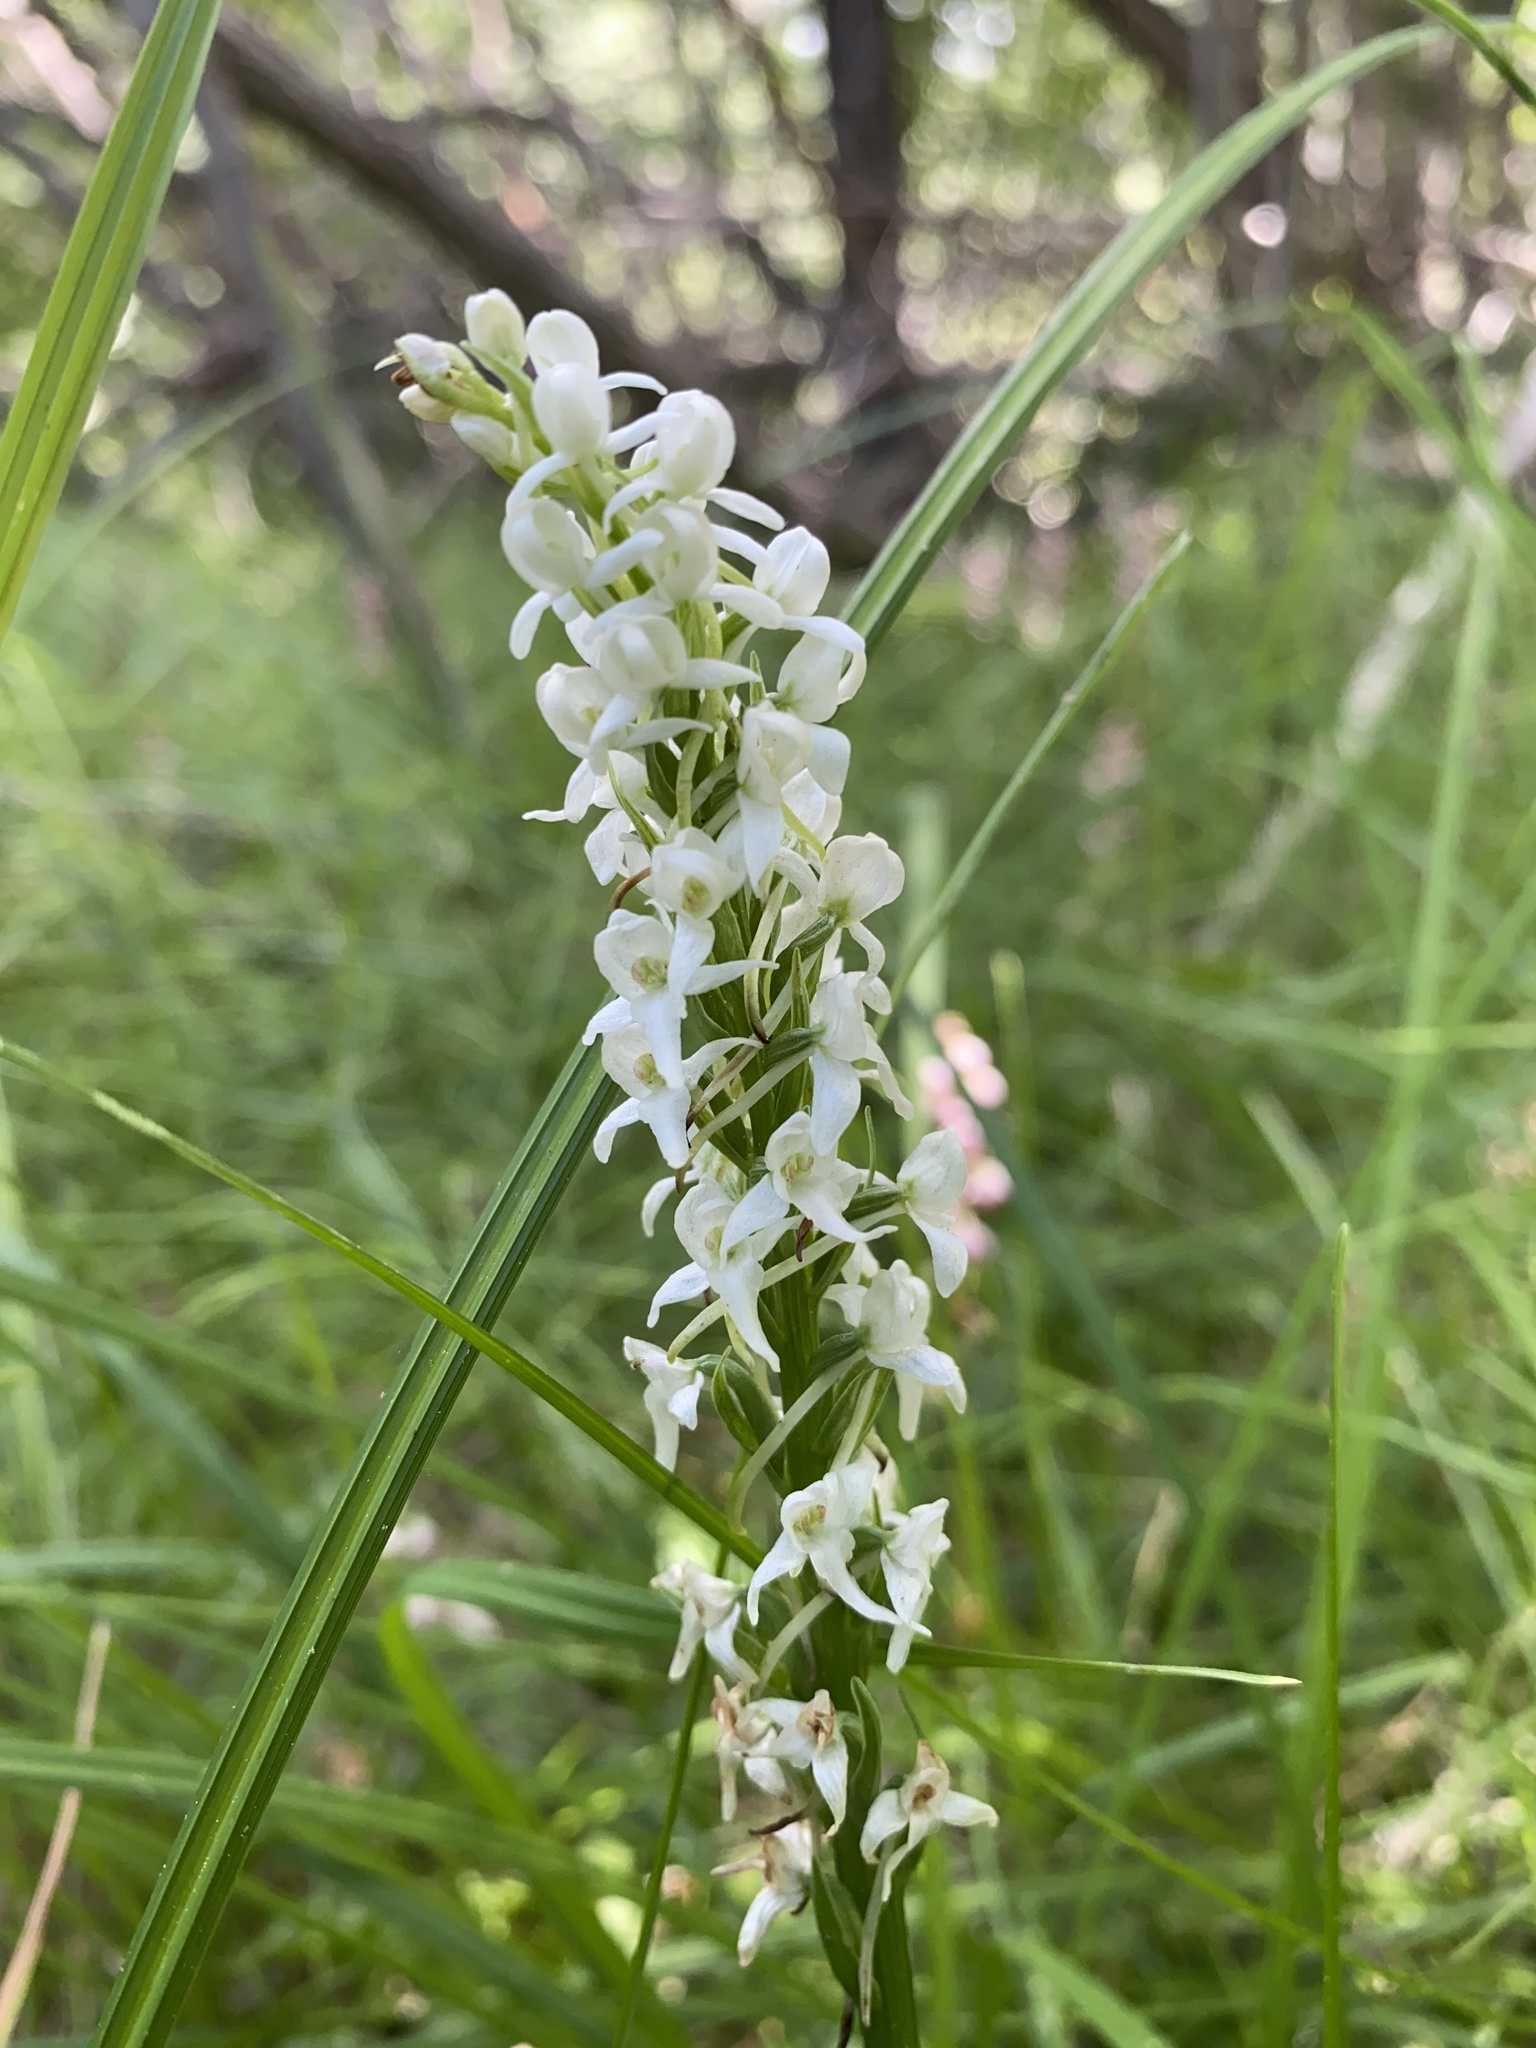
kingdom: Plantae
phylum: Tracheophyta
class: Liliopsida
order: Asparagales
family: Orchidaceae
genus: Platanthera
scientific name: Platanthera dilatata
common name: Bog candles
